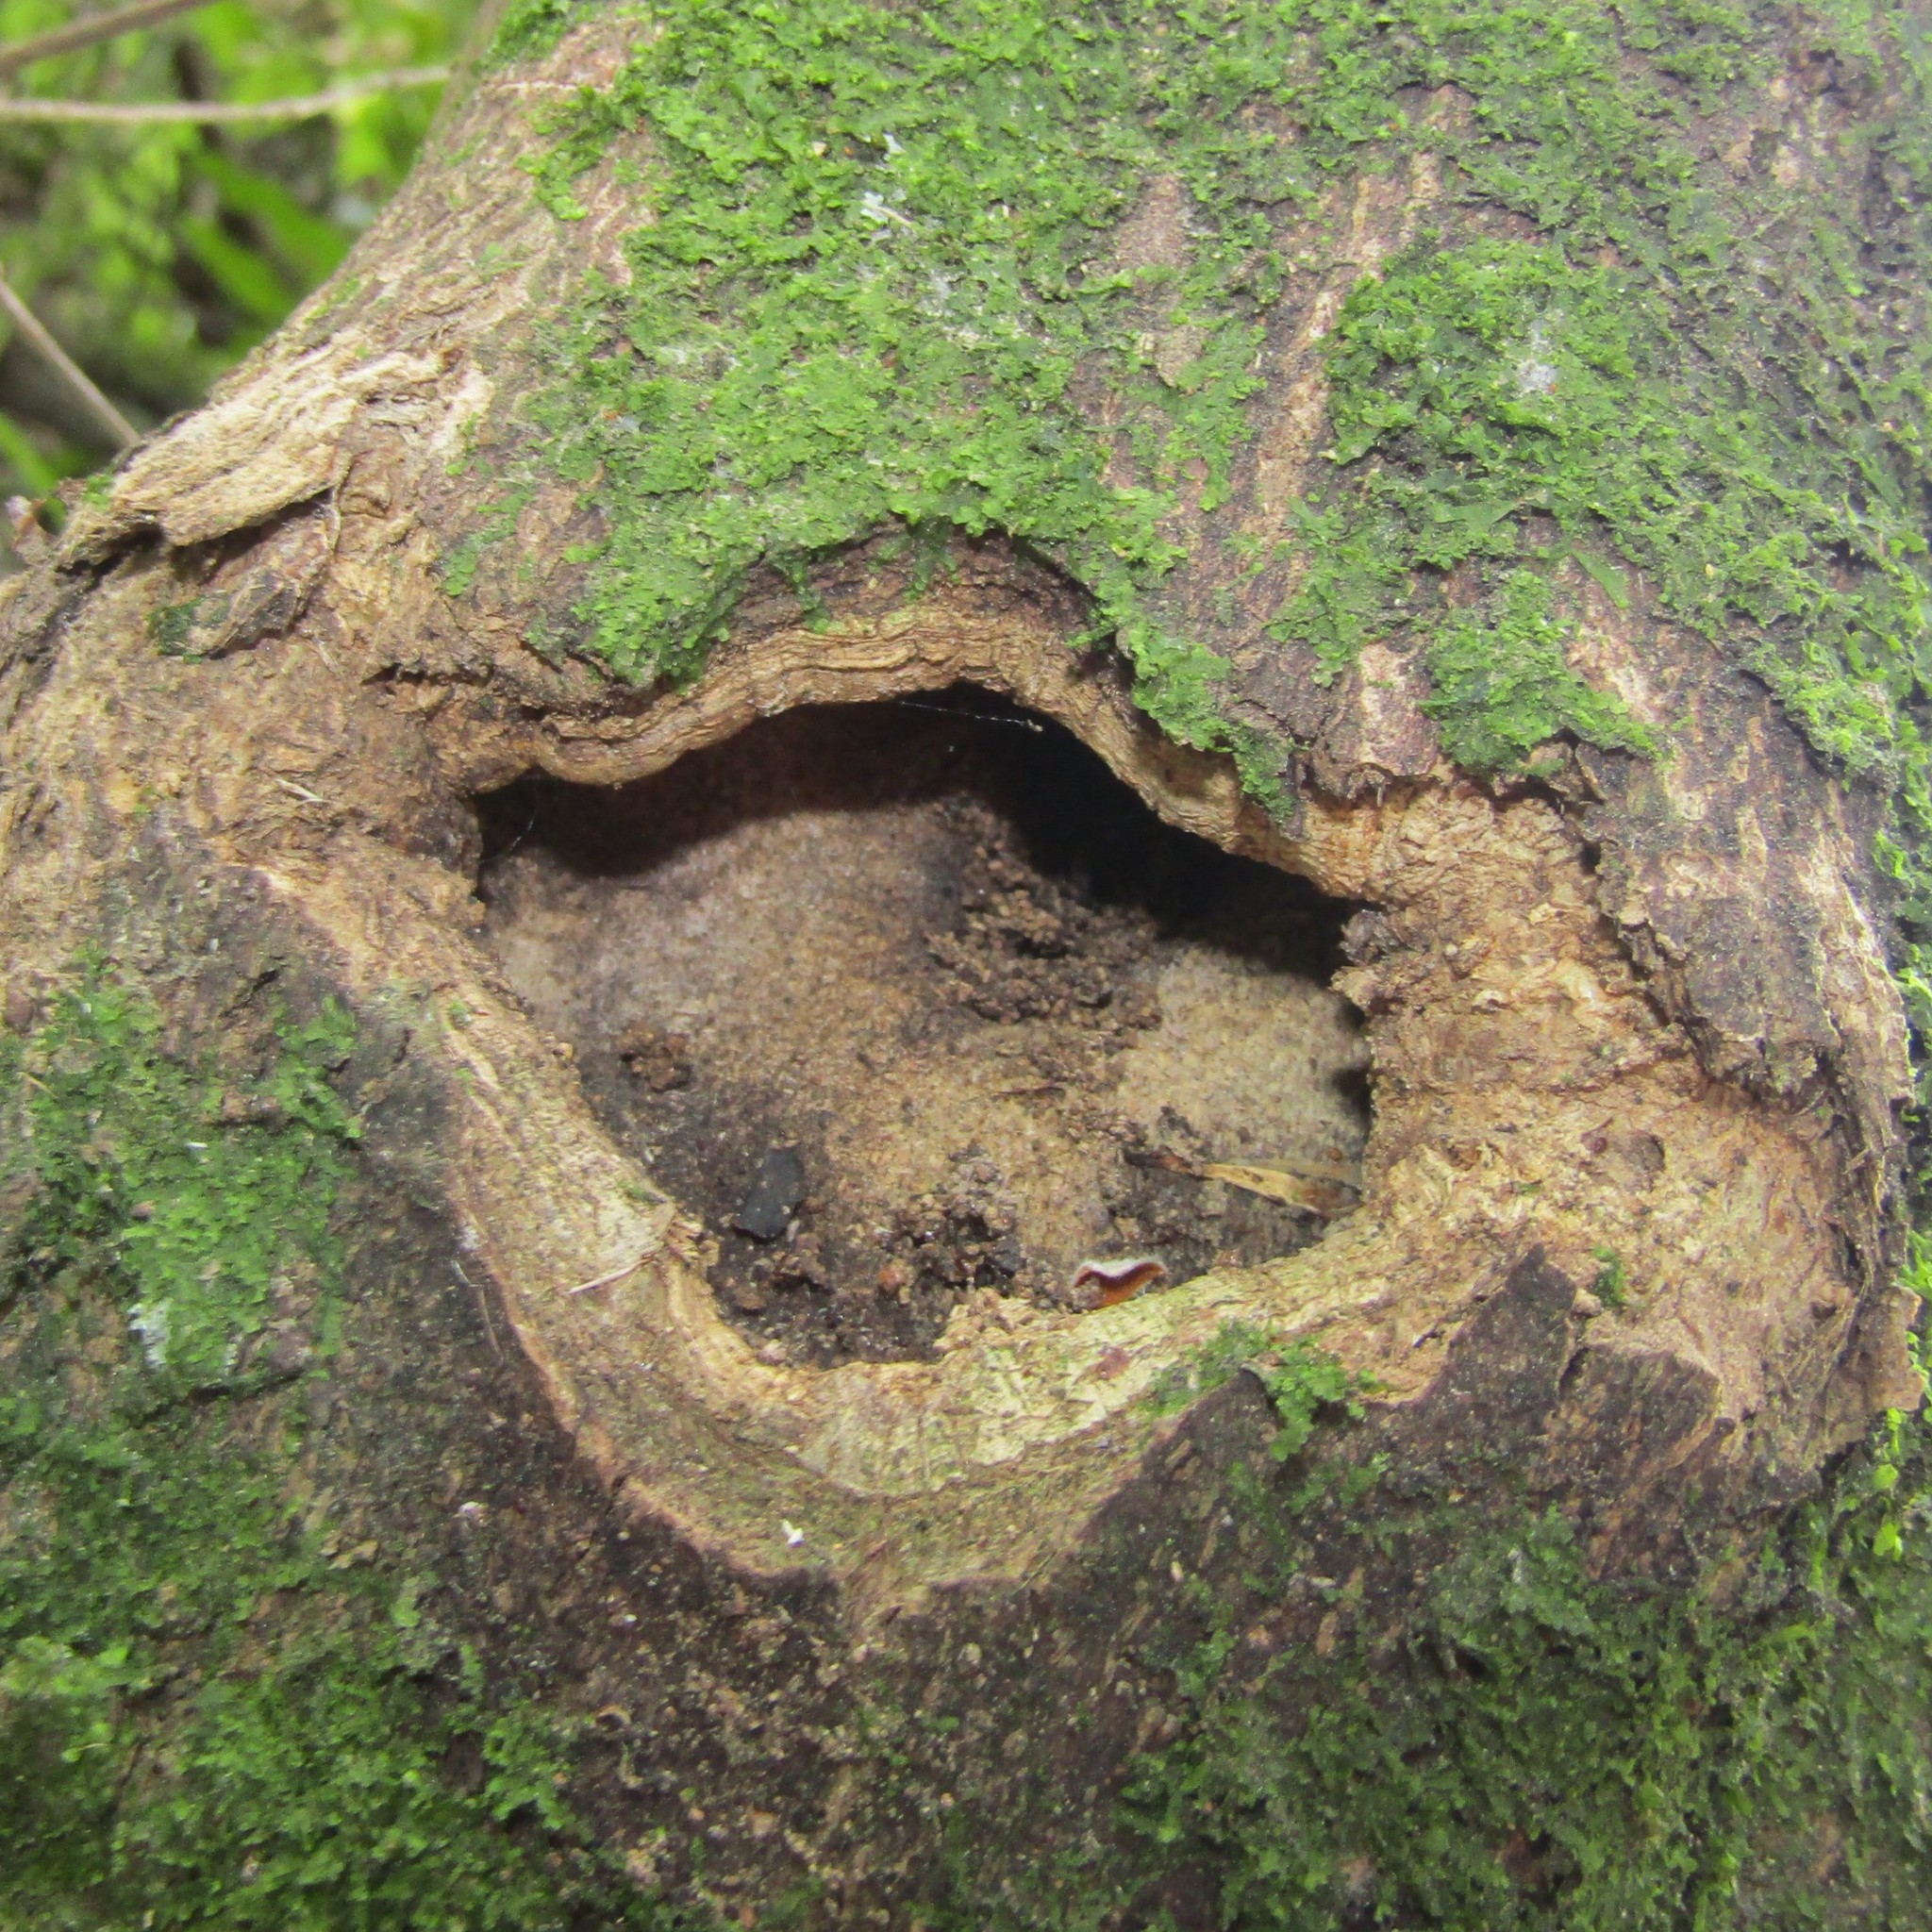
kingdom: Animalia
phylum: Arthropoda
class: Insecta
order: Lepidoptera
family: Hepialidae
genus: Aenetus
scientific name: Aenetus virescens
